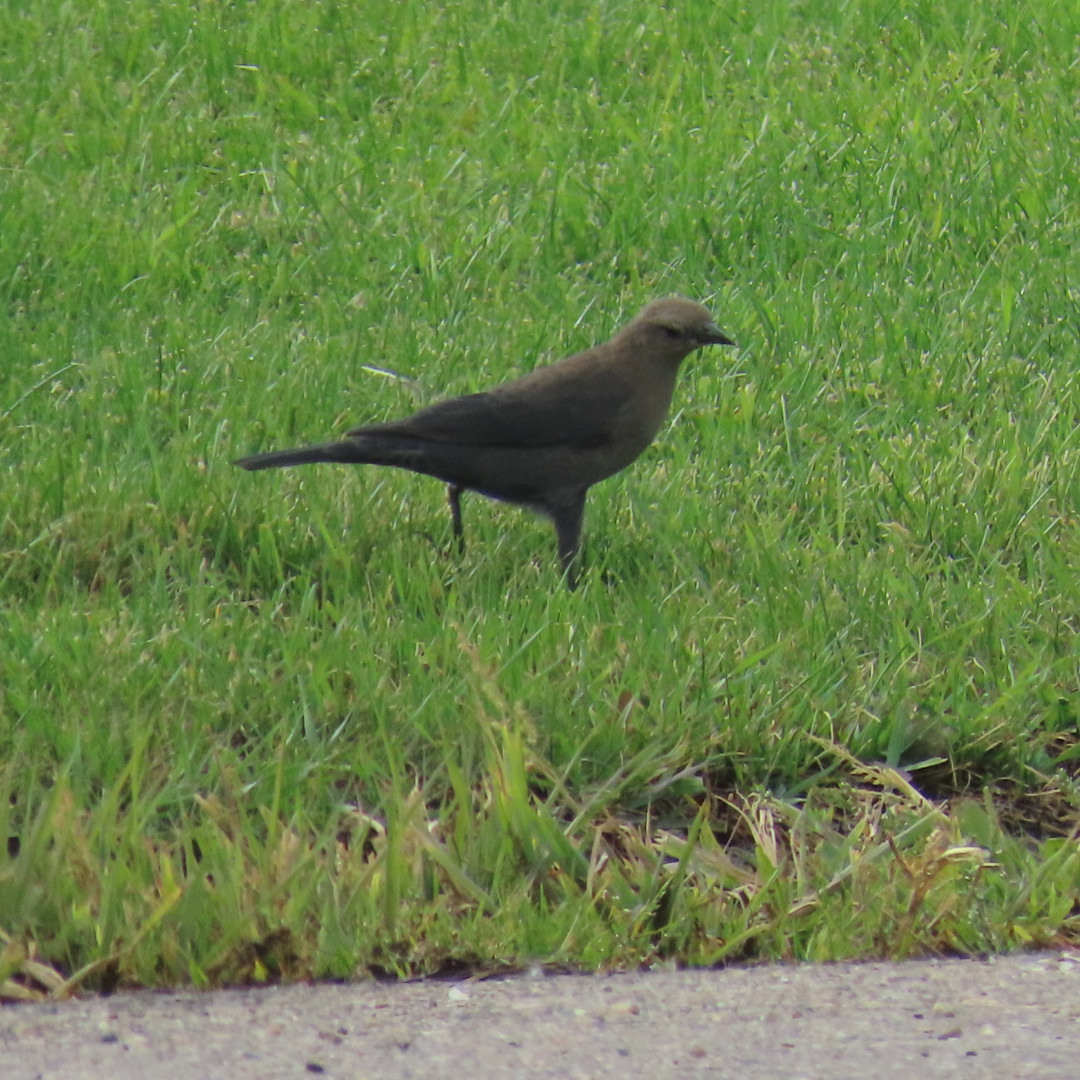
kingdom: Animalia
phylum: Chordata
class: Aves
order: Passeriformes
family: Icteridae
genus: Euphagus
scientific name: Euphagus cyanocephalus
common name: Brewer's blackbird
